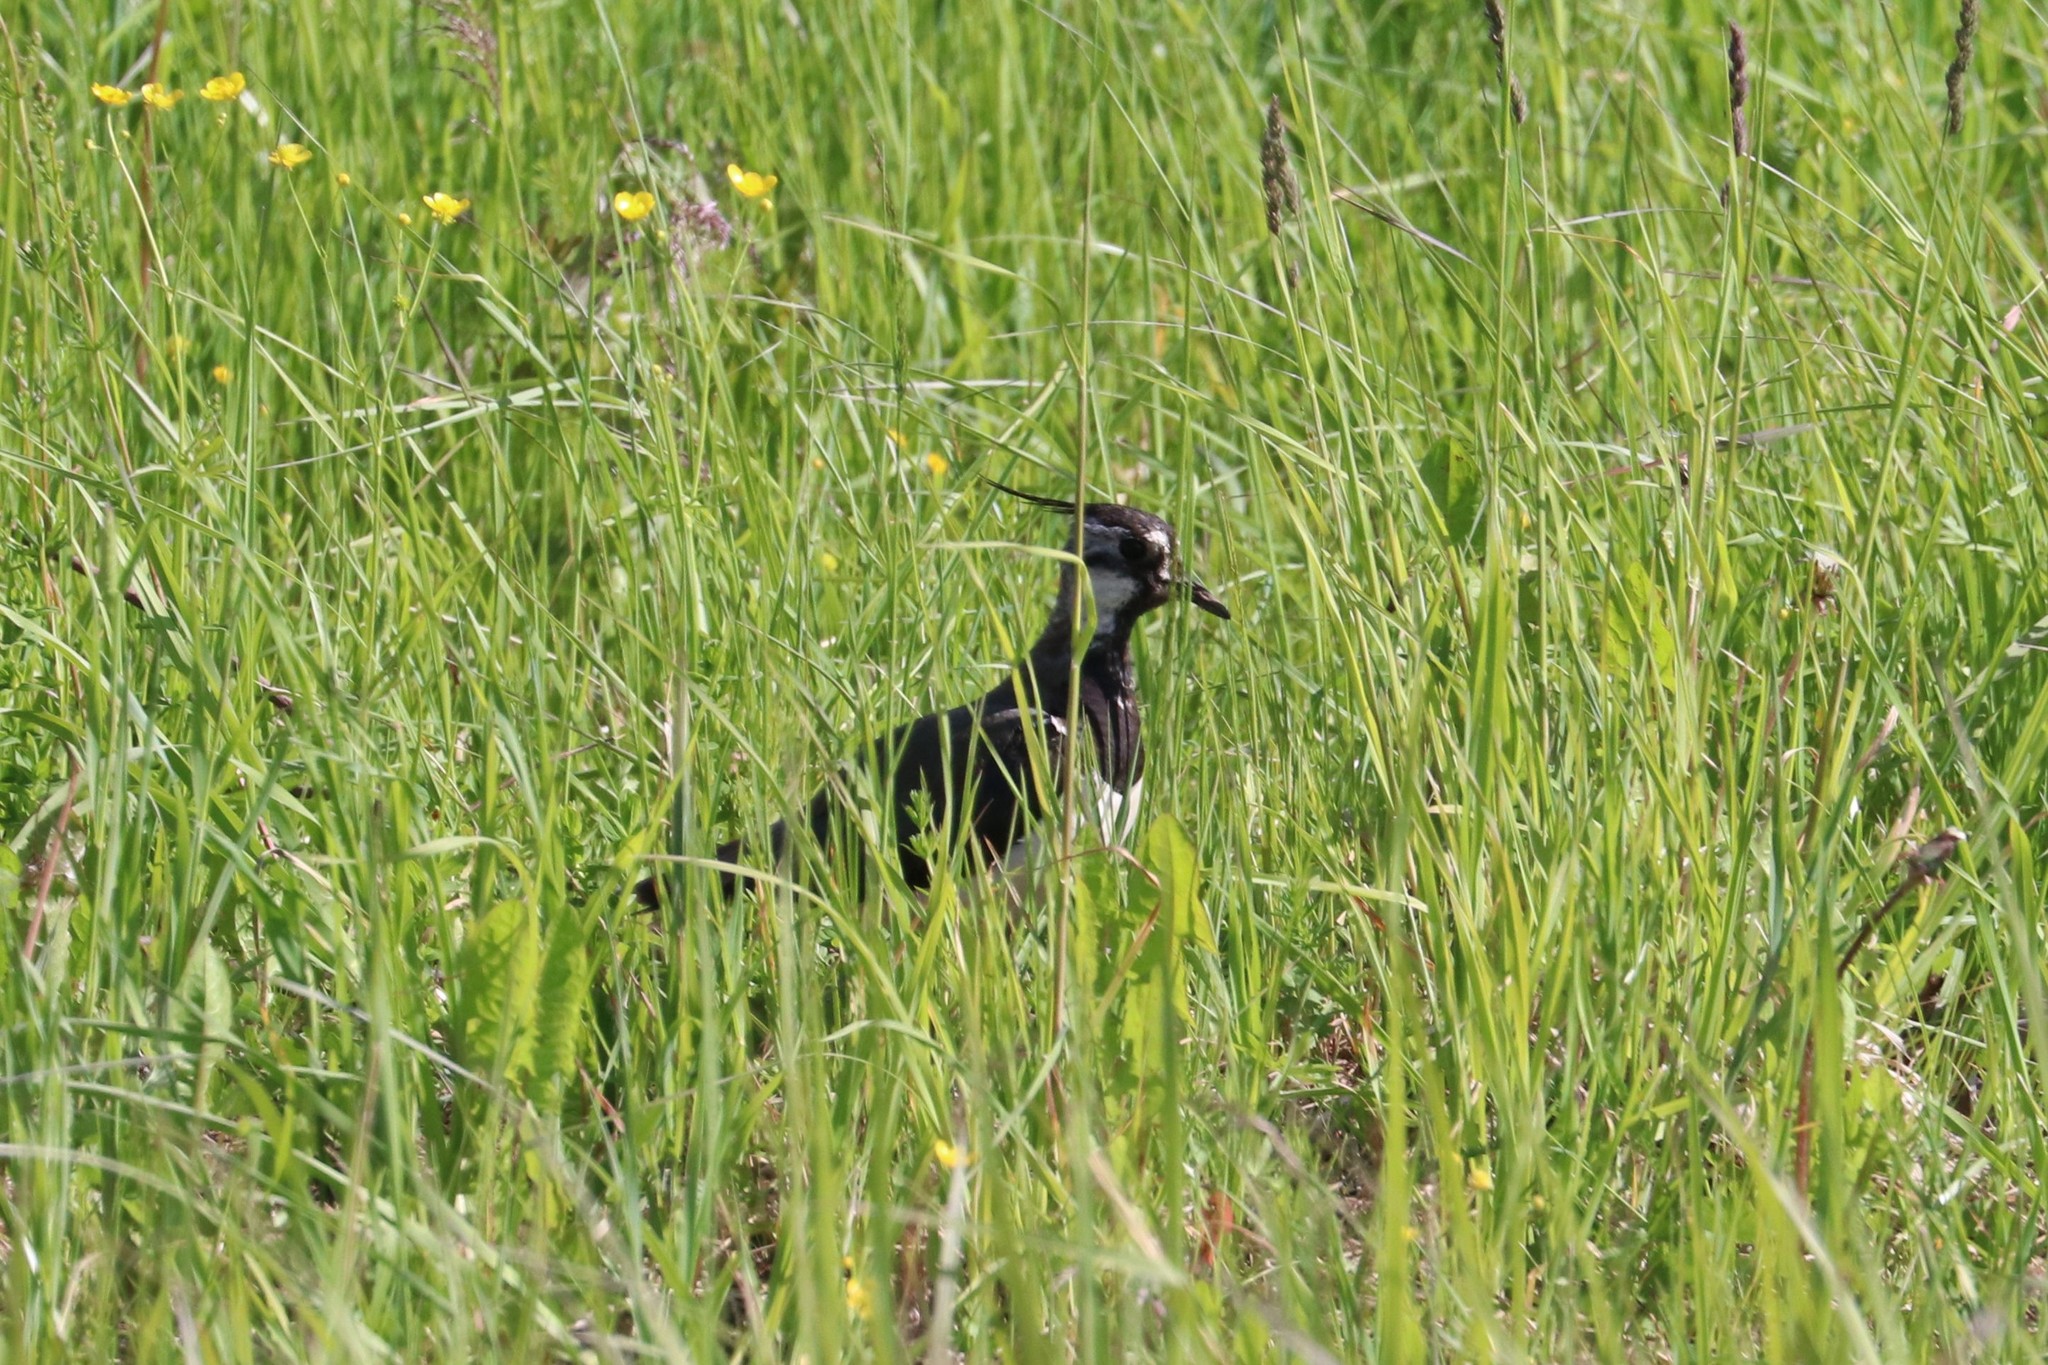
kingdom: Animalia
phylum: Chordata
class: Aves
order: Charadriiformes
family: Charadriidae
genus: Vanellus
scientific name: Vanellus vanellus
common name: Northern lapwing
